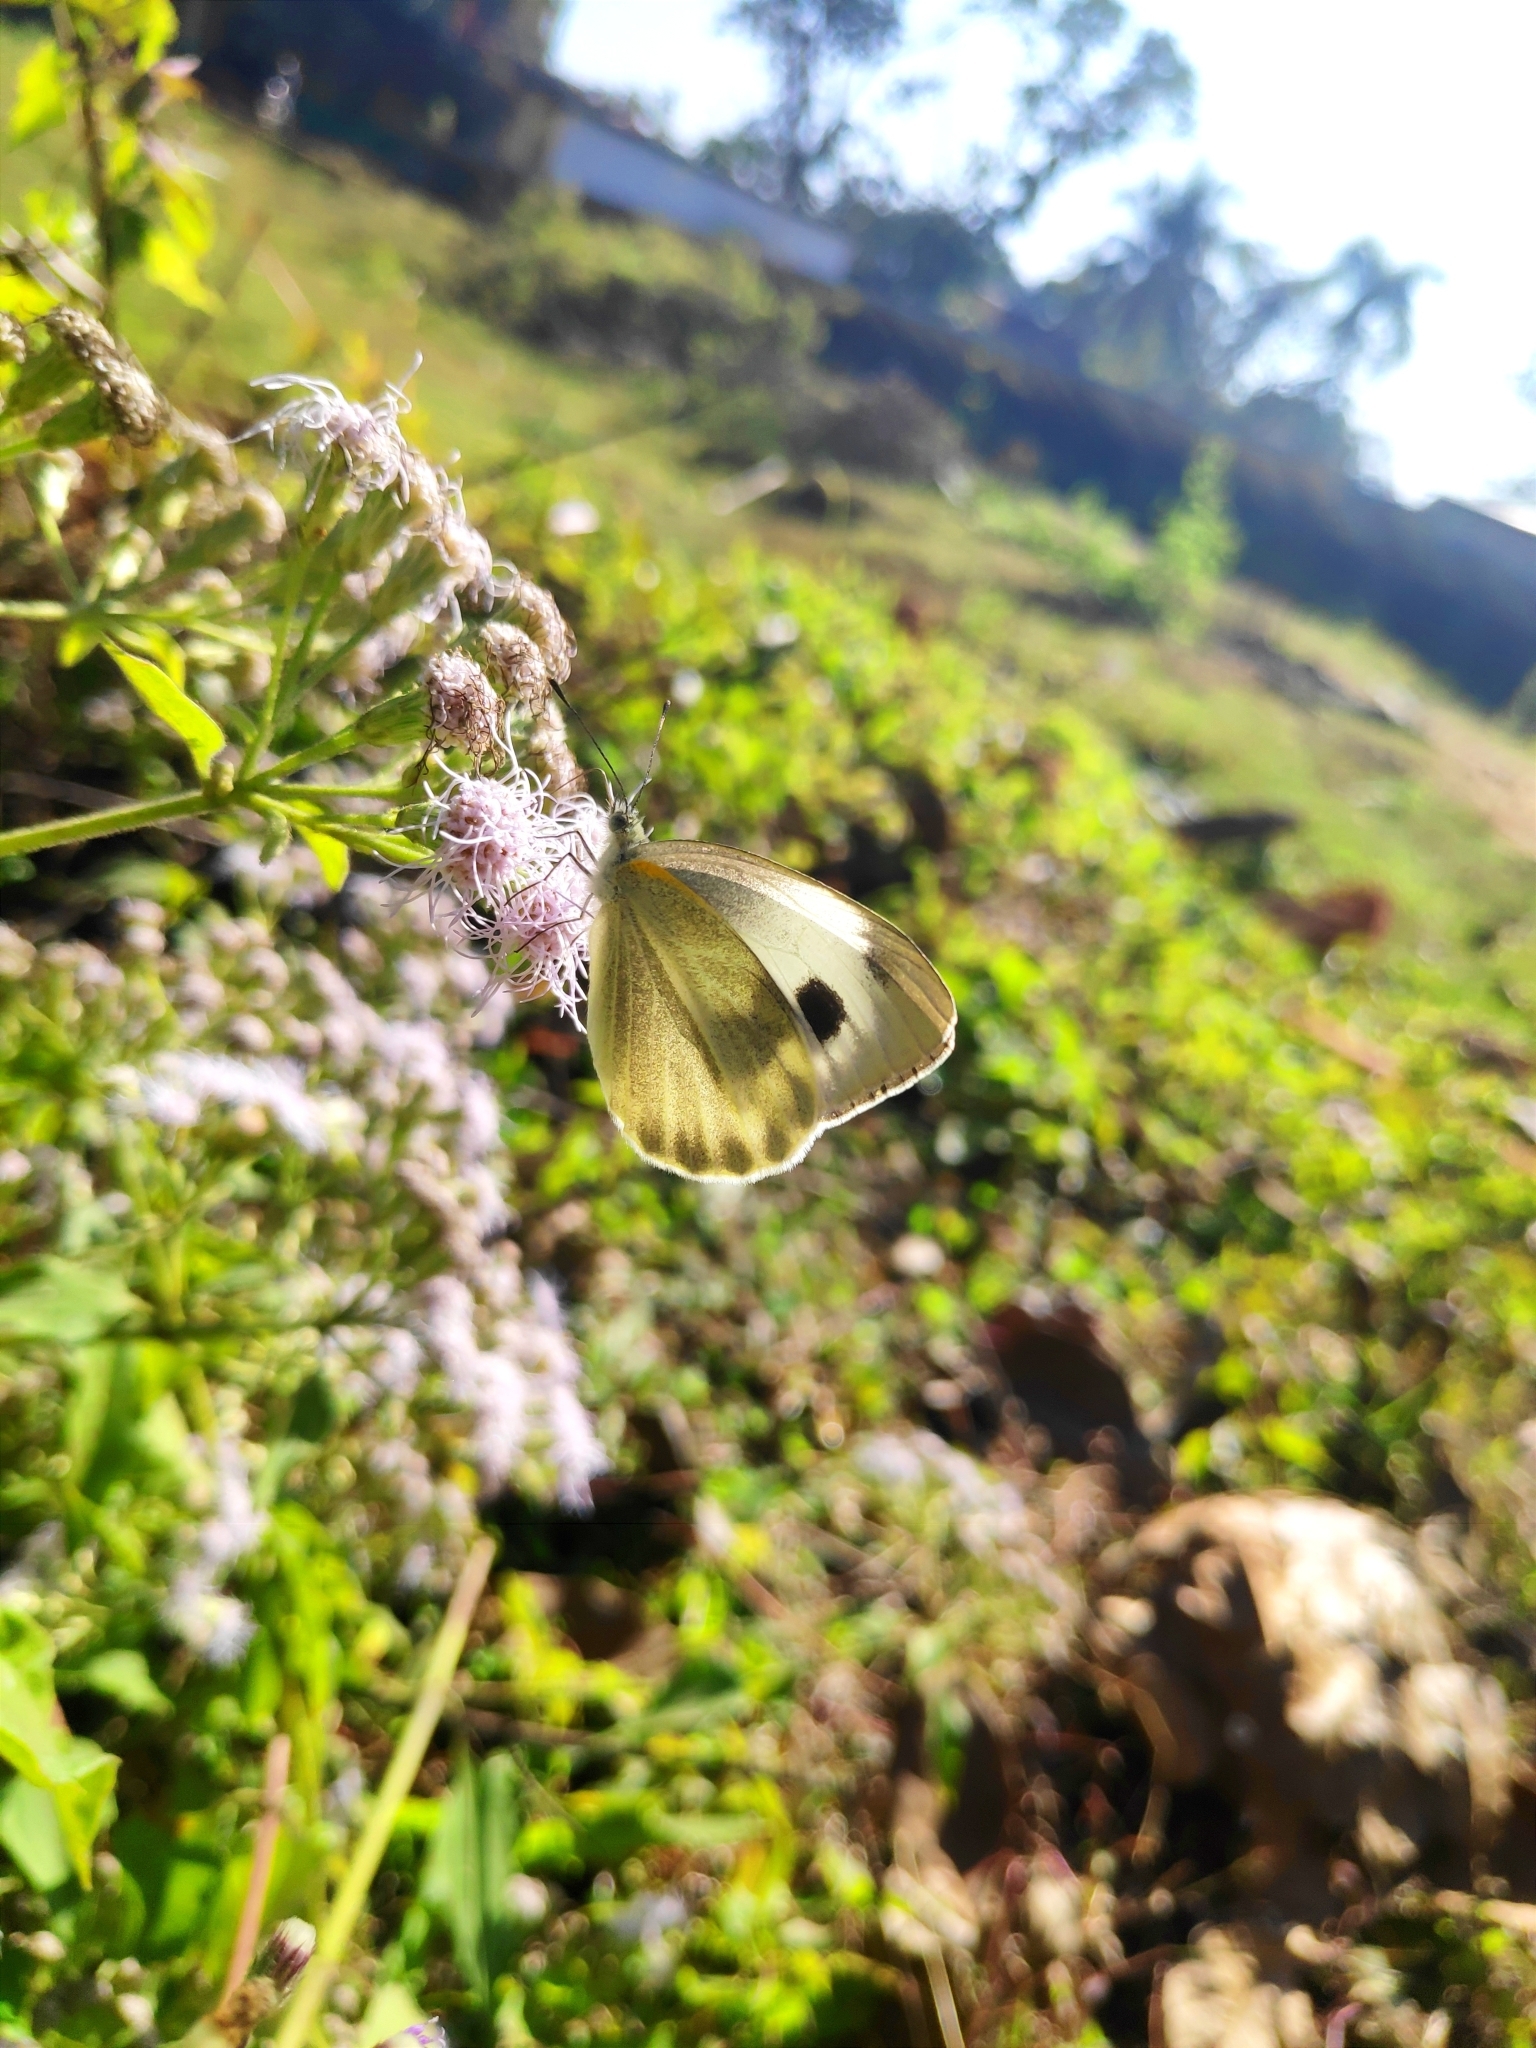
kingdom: Animalia
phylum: Arthropoda
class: Insecta
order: Lepidoptera
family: Pieridae
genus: Pieris
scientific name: Pieris canidia
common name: Indian cabbage white
